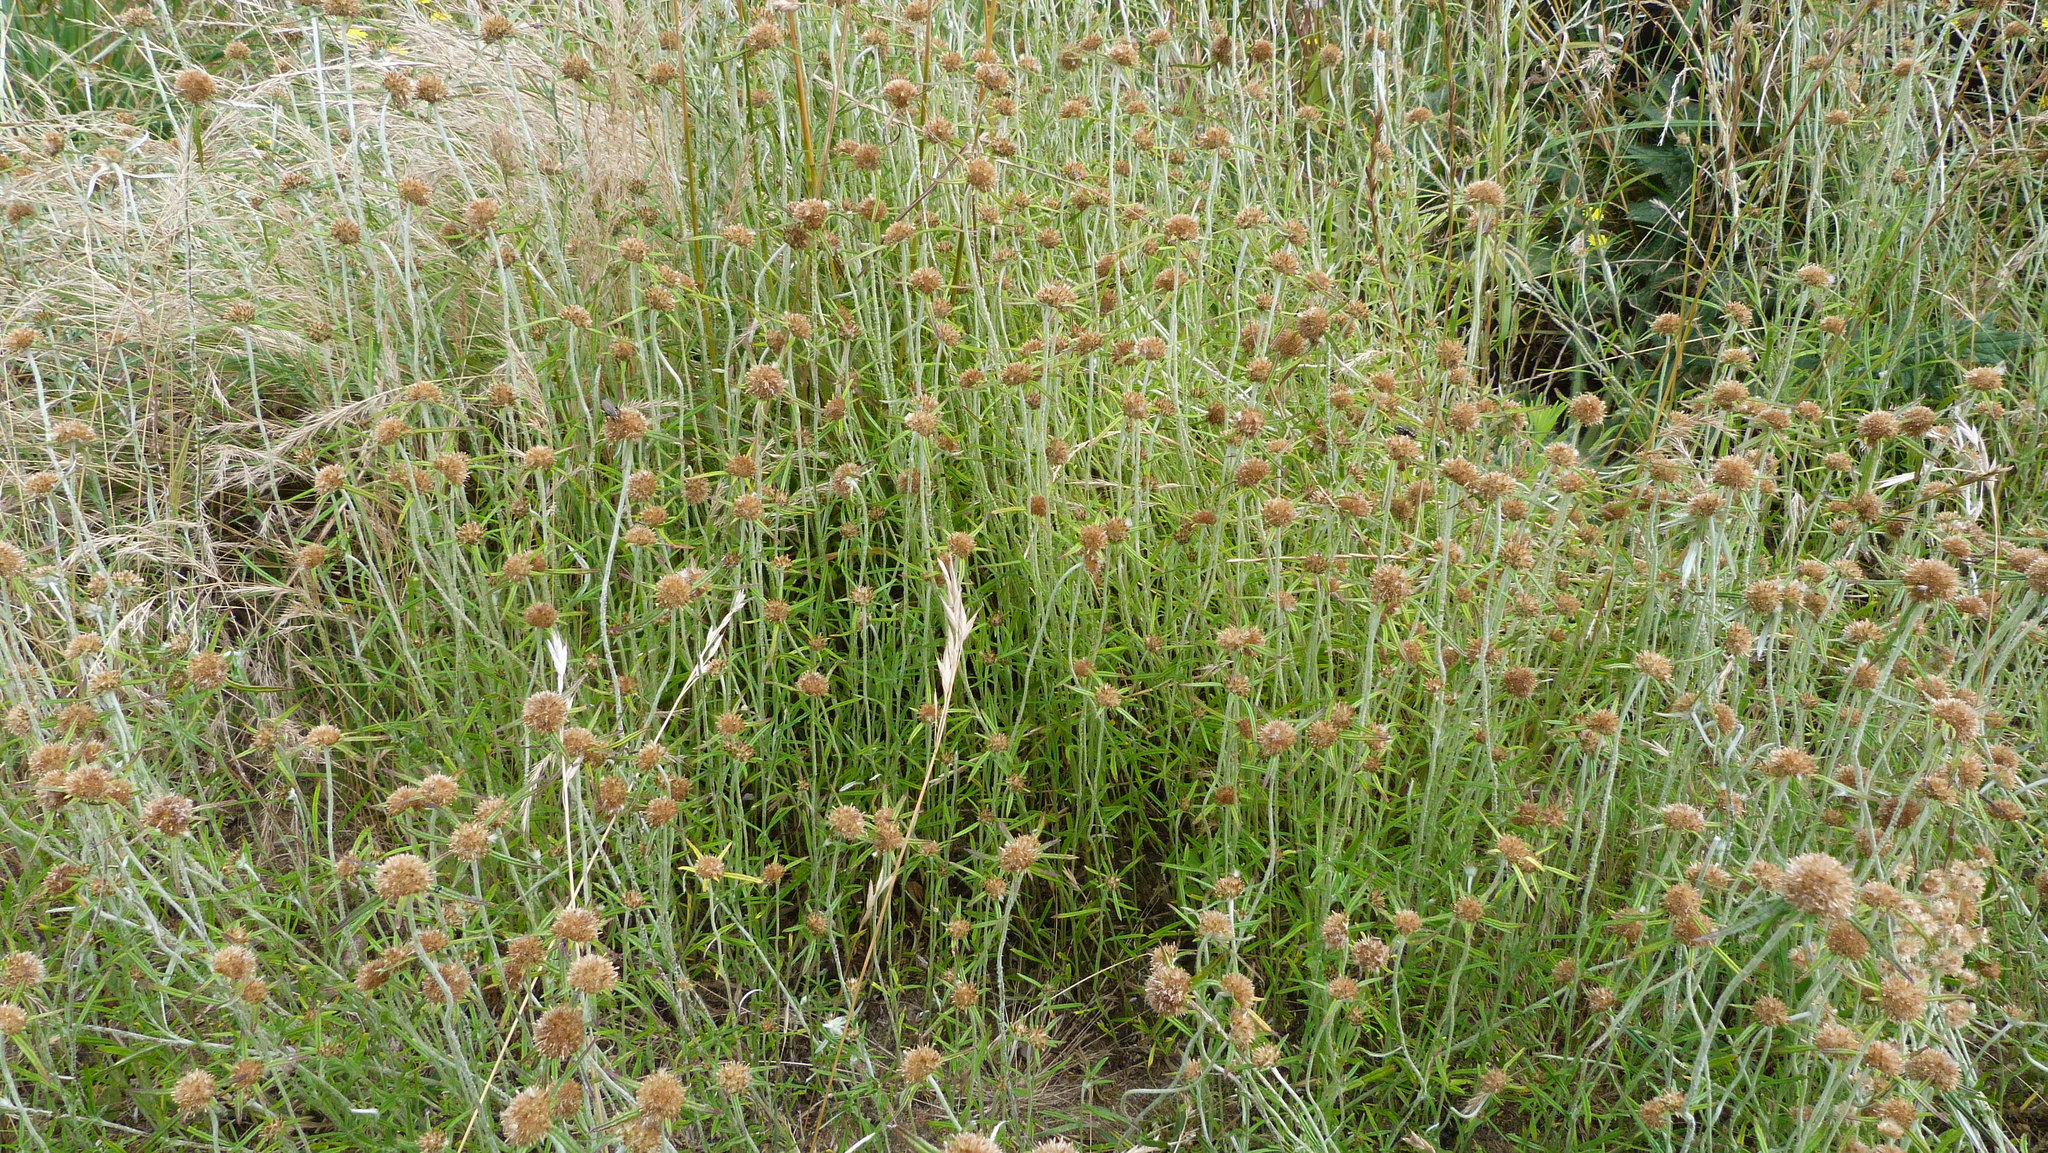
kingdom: Plantae
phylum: Tracheophyta
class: Magnoliopsida
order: Asterales
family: Asteraceae
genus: Euchiton
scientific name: Euchiton involucratus
